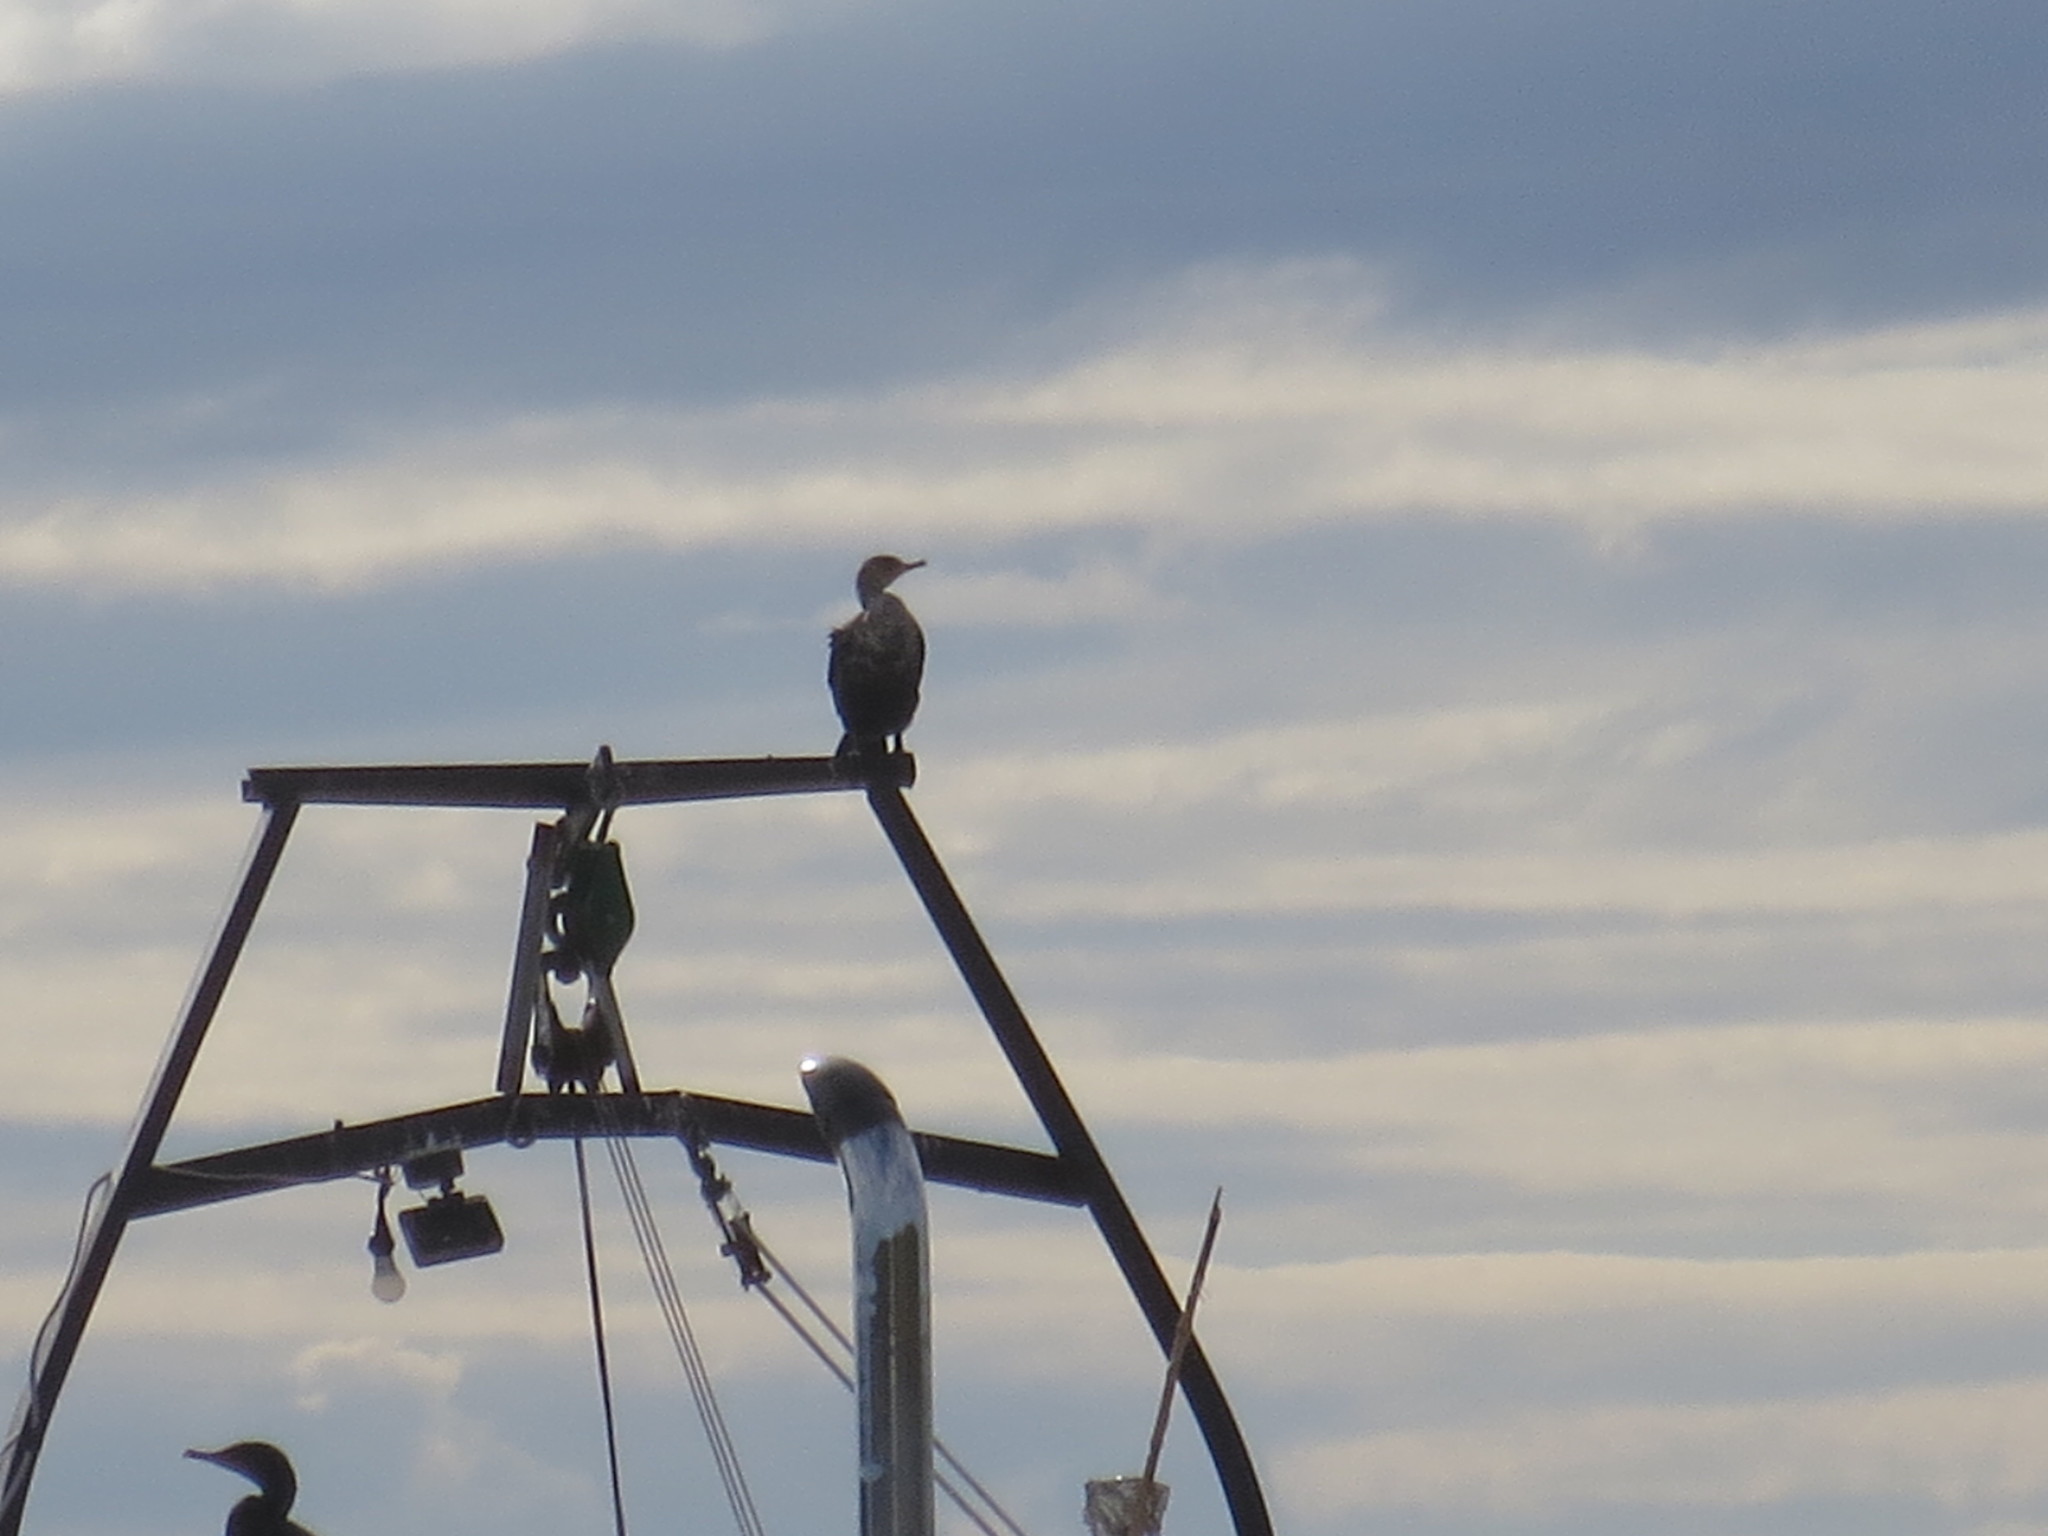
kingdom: Animalia
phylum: Chordata
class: Aves
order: Suliformes
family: Phalacrocoracidae
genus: Phalacrocorax
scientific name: Phalacrocorax auritus
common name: Double-crested cormorant
